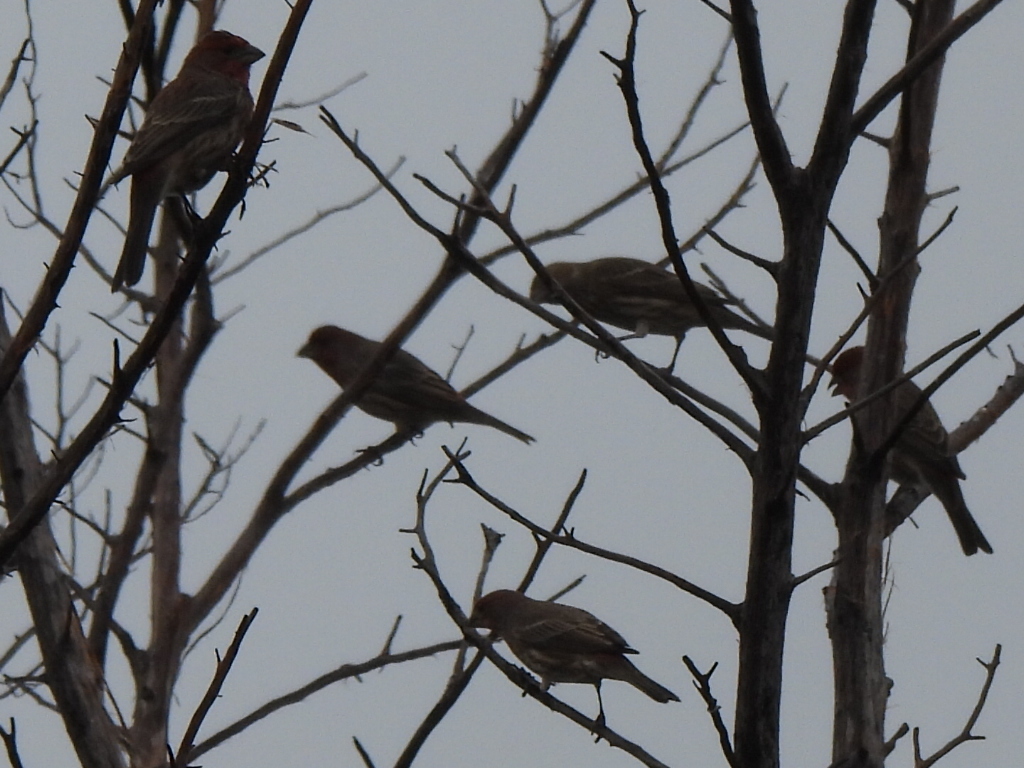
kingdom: Animalia
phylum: Chordata
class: Aves
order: Passeriformes
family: Fringillidae
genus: Haemorhous
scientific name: Haemorhous mexicanus
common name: House finch
